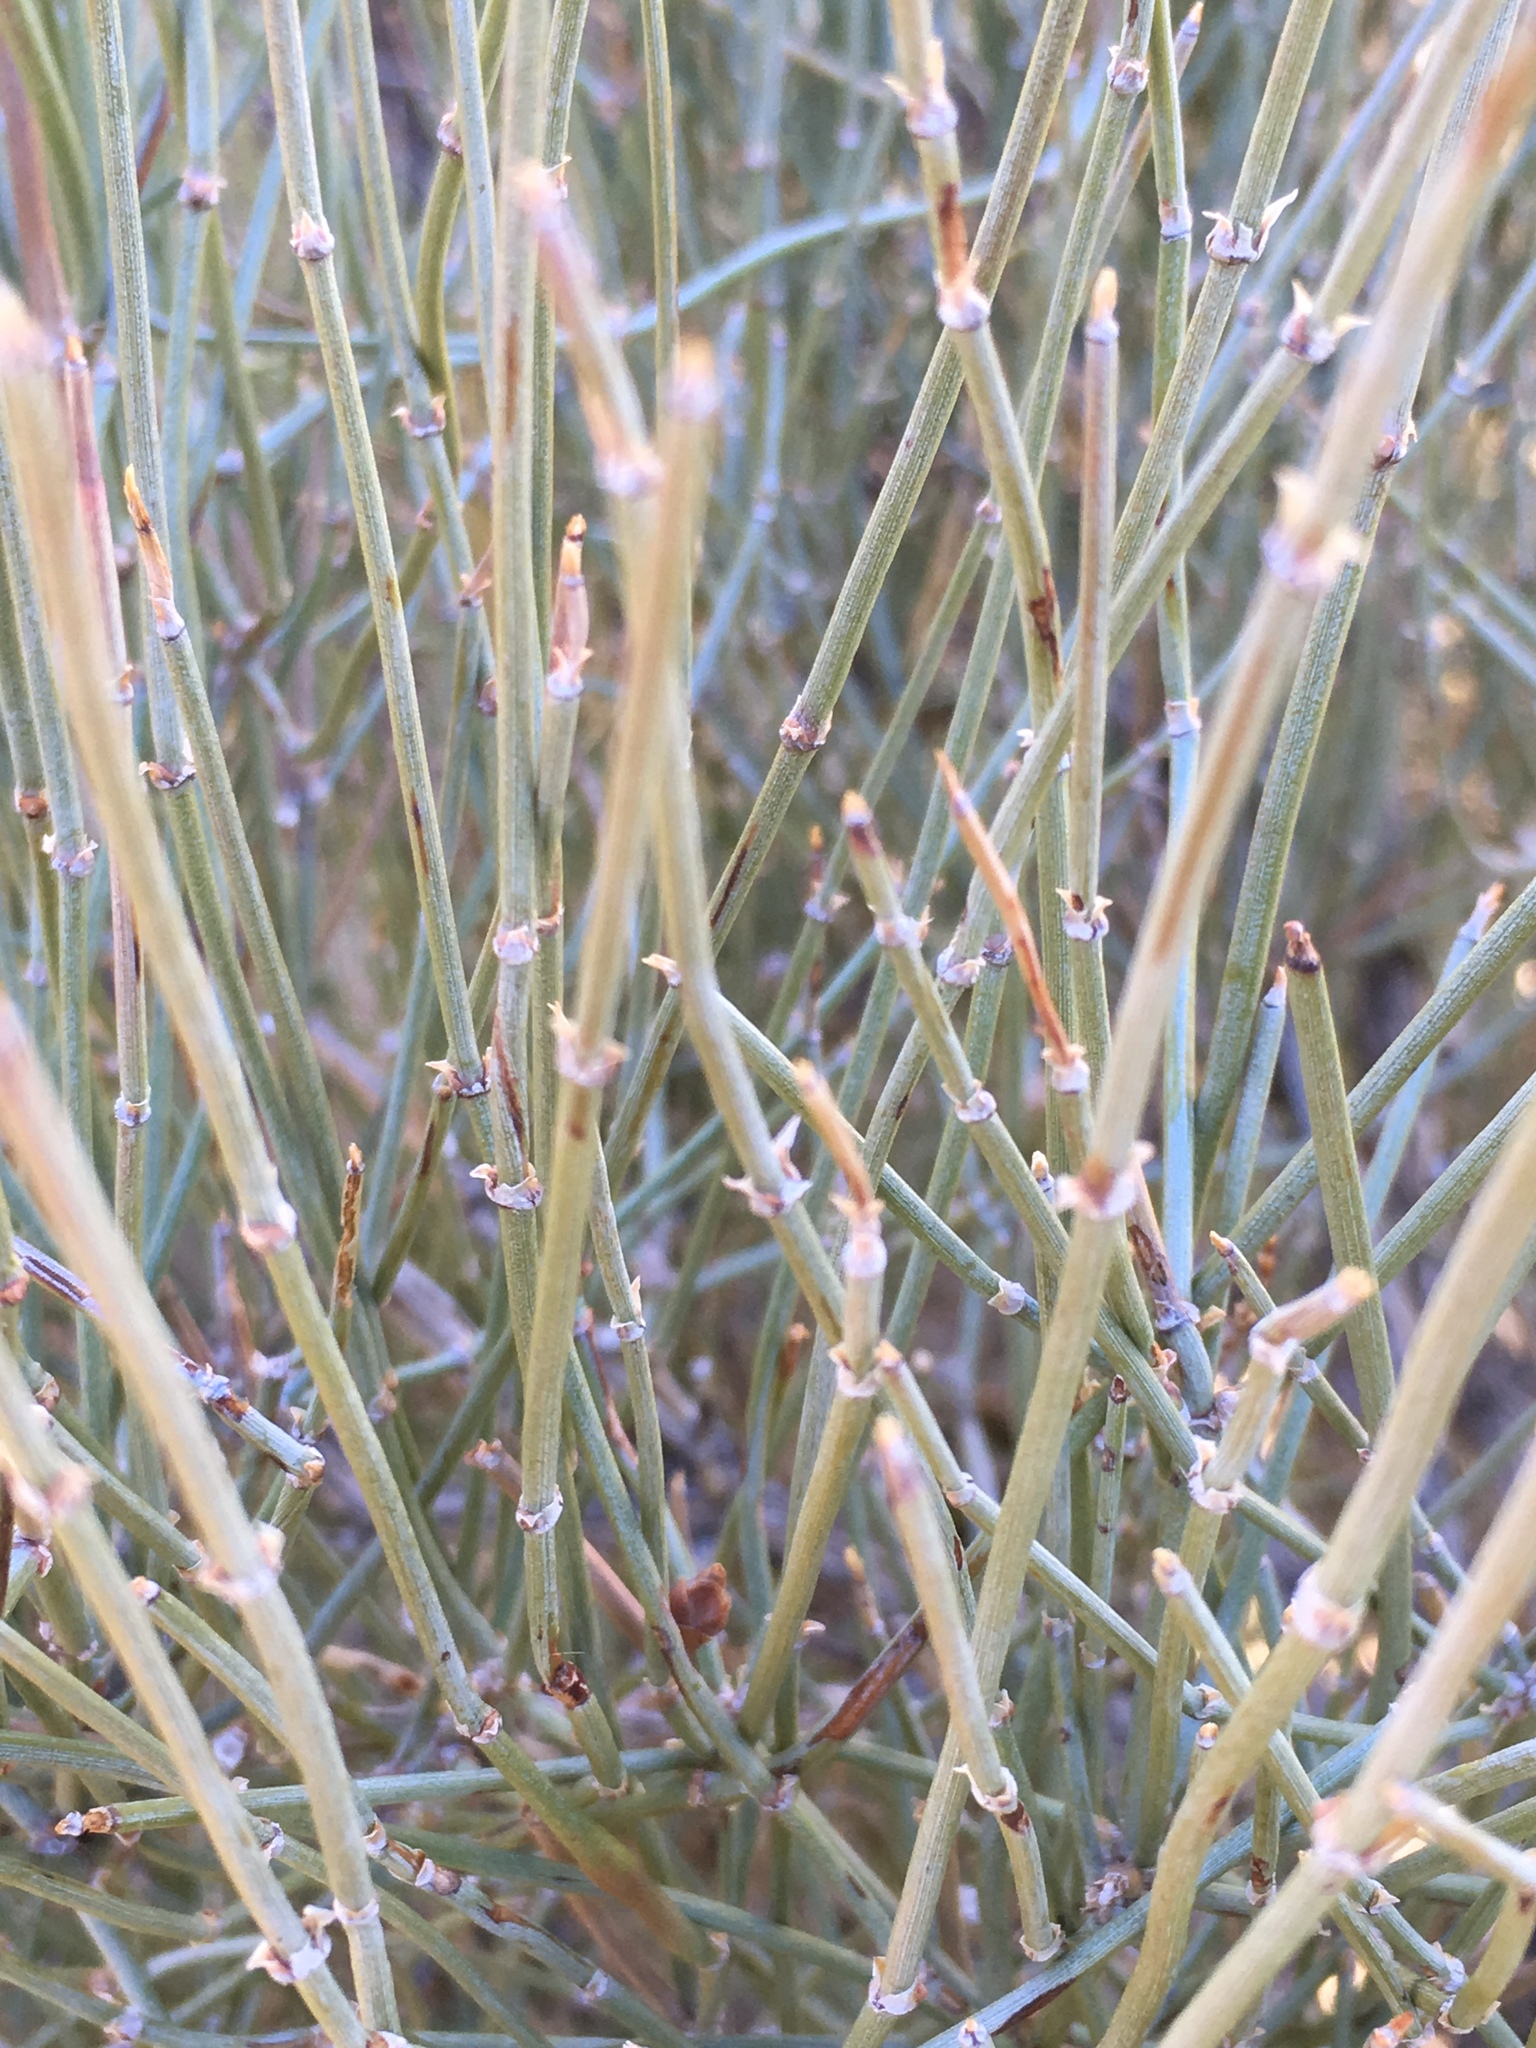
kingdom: Plantae
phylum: Tracheophyta
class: Gnetopsida
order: Ephedrales
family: Ephedraceae
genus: Ephedra
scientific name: Ephedra aspera
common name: Boundary ephedra
